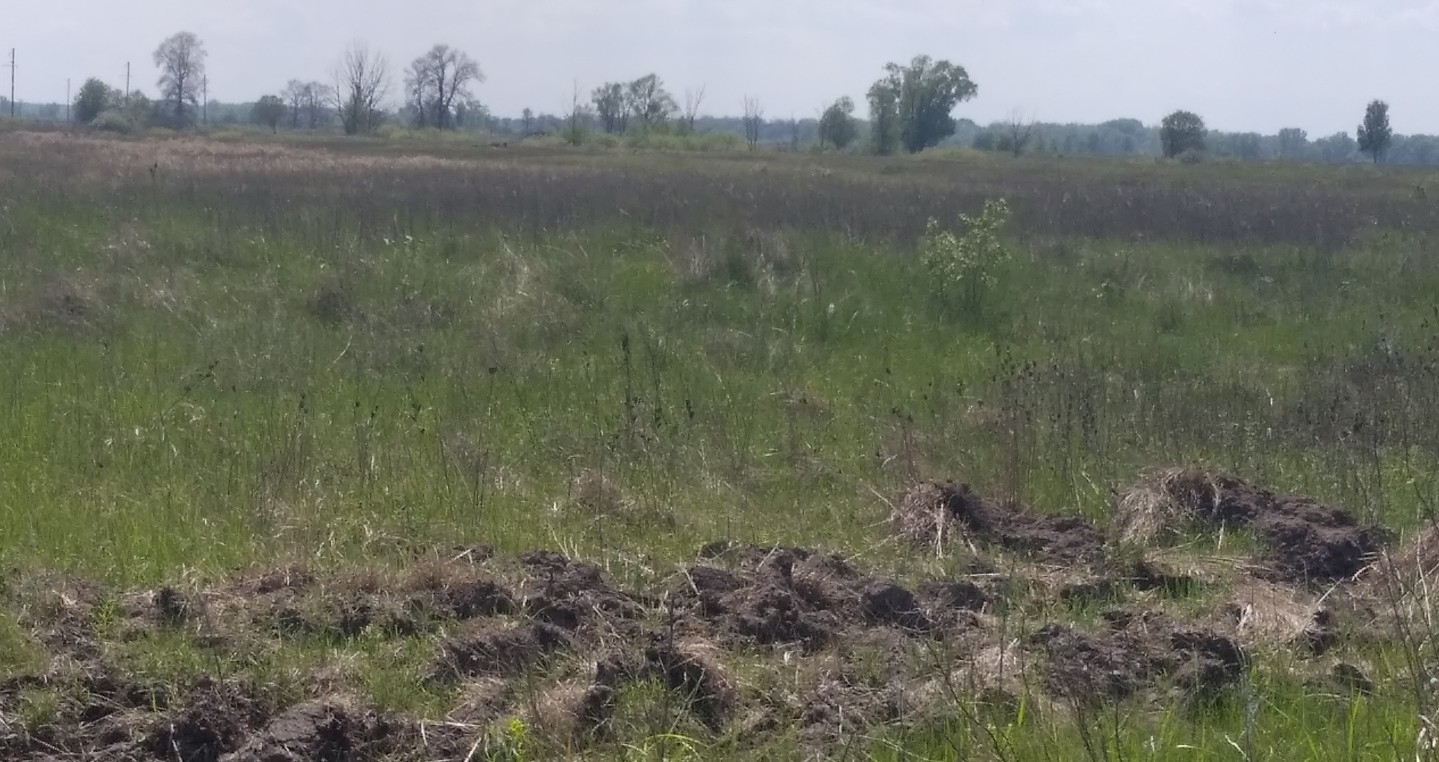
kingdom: Plantae
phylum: Tracheophyta
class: Liliopsida
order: Asparagales
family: Iridaceae
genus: Iris
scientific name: Iris sibirica
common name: Siberian iris
